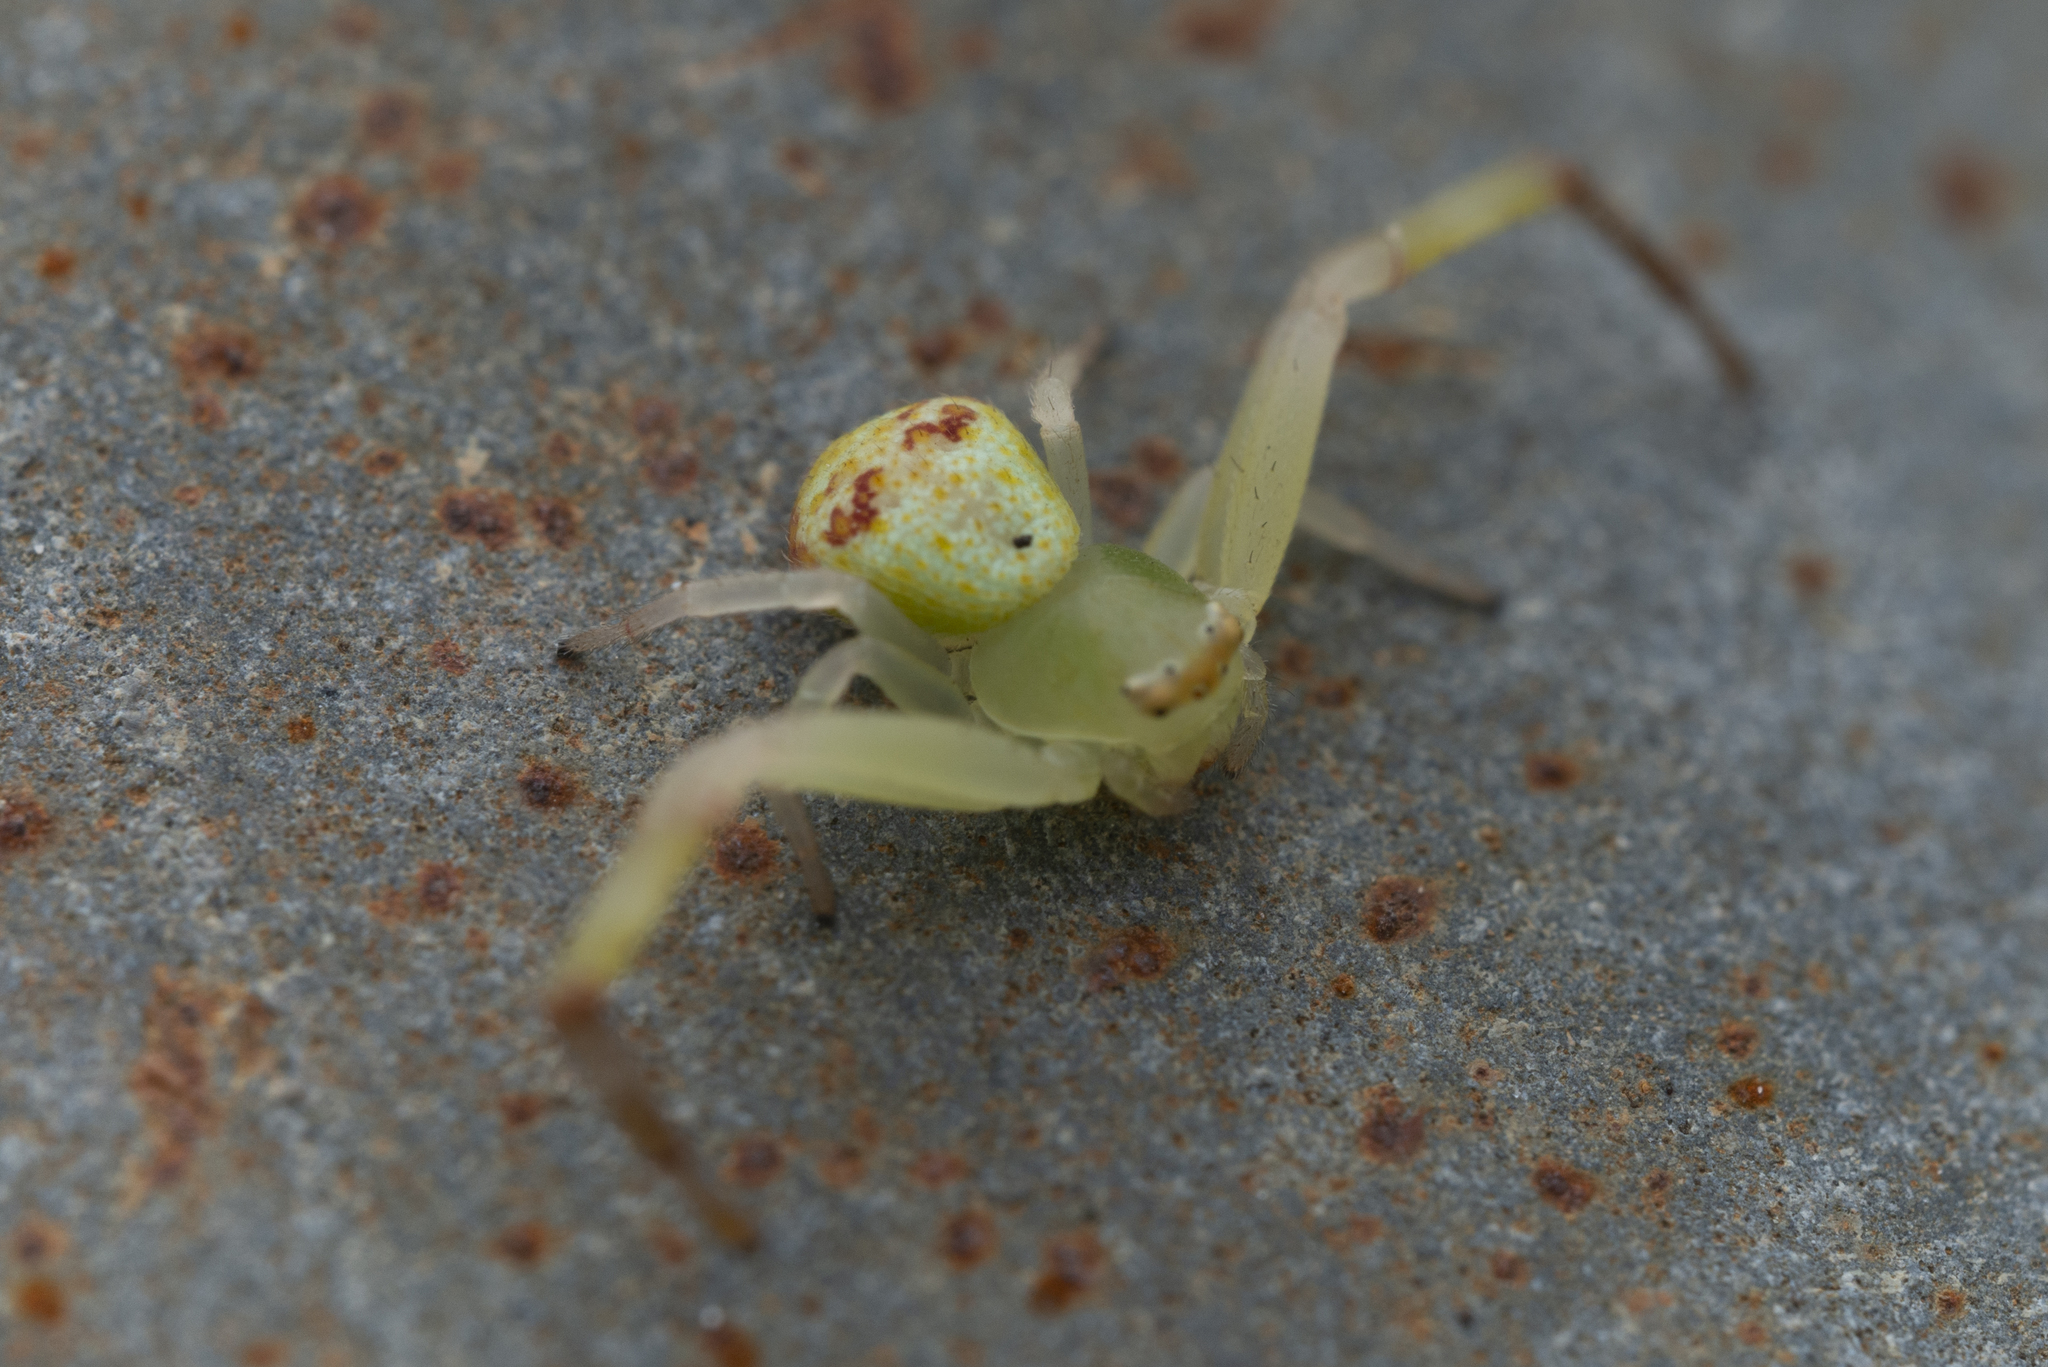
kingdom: Animalia
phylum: Arthropoda
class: Arachnida
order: Araneae
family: Thomisidae
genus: Ebrechtella
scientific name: Ebrechtella tricuspidata
